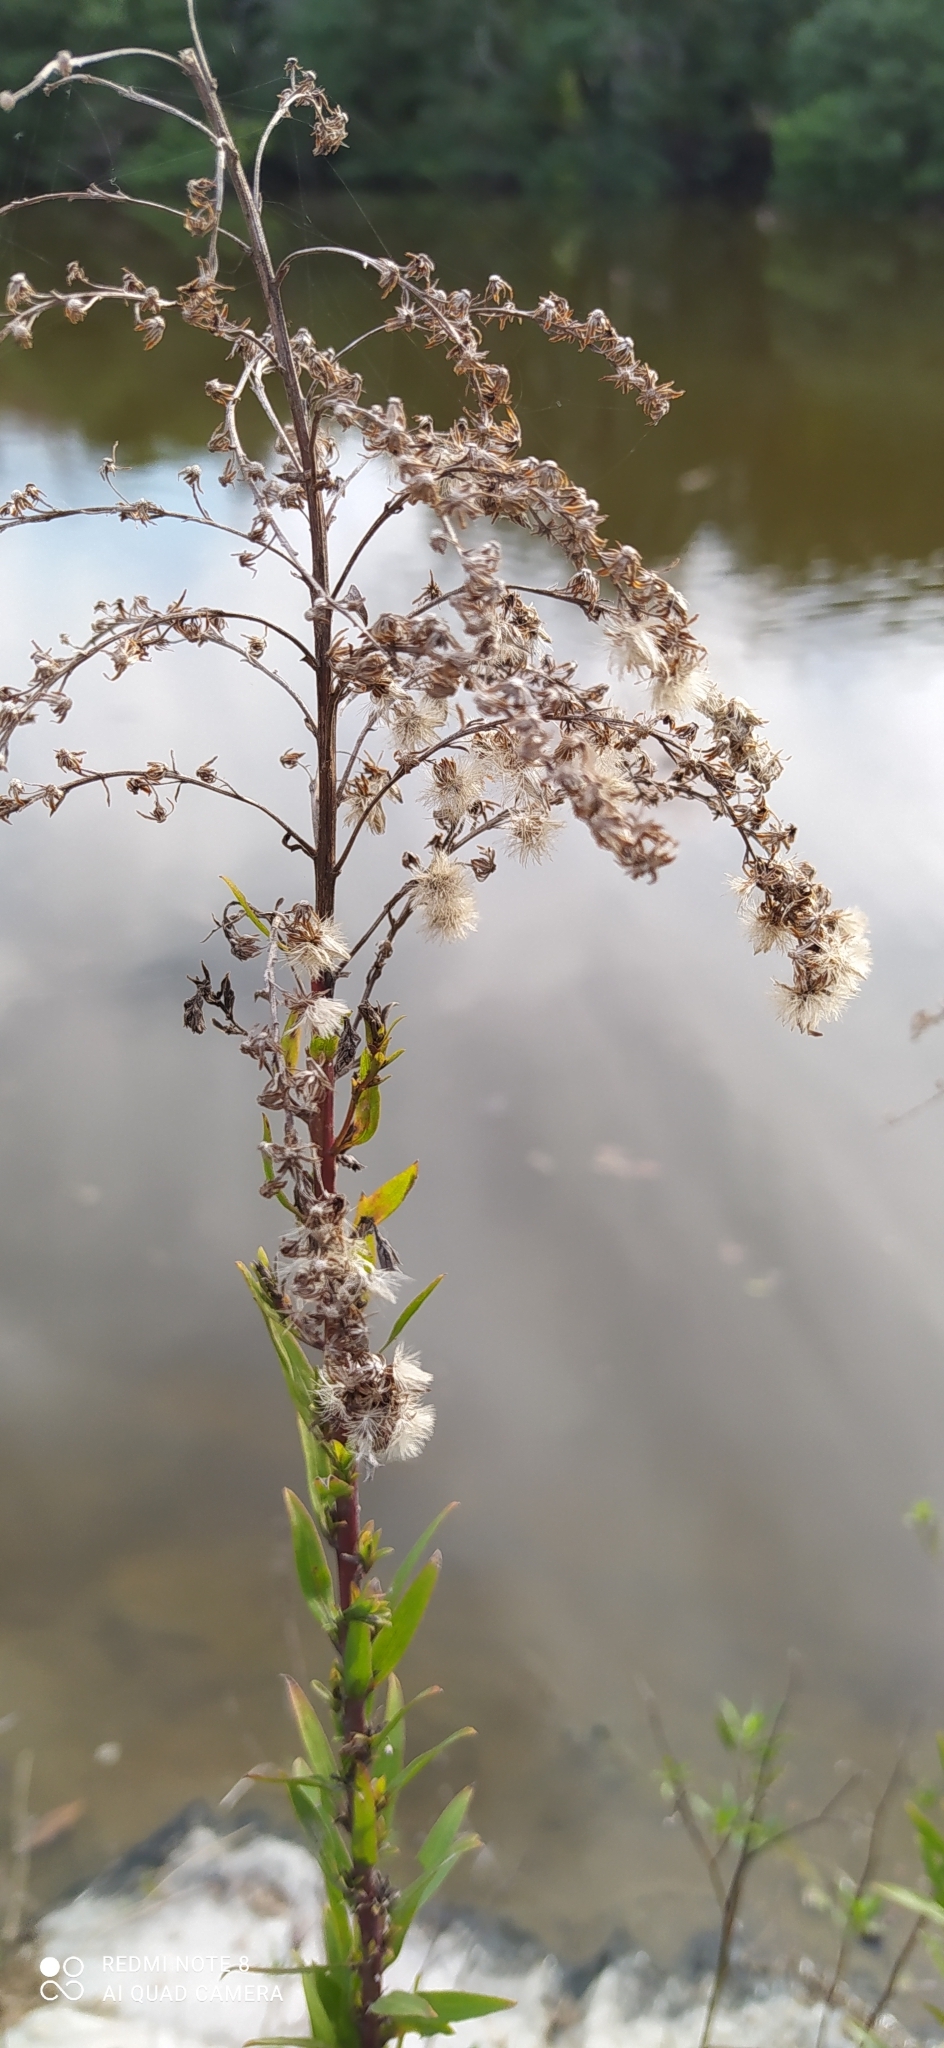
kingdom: Plantae
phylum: Tracheophyta
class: Magnoliopsida
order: Asterales
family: Asteraceae
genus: Solidago
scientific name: Solidago chilensis
